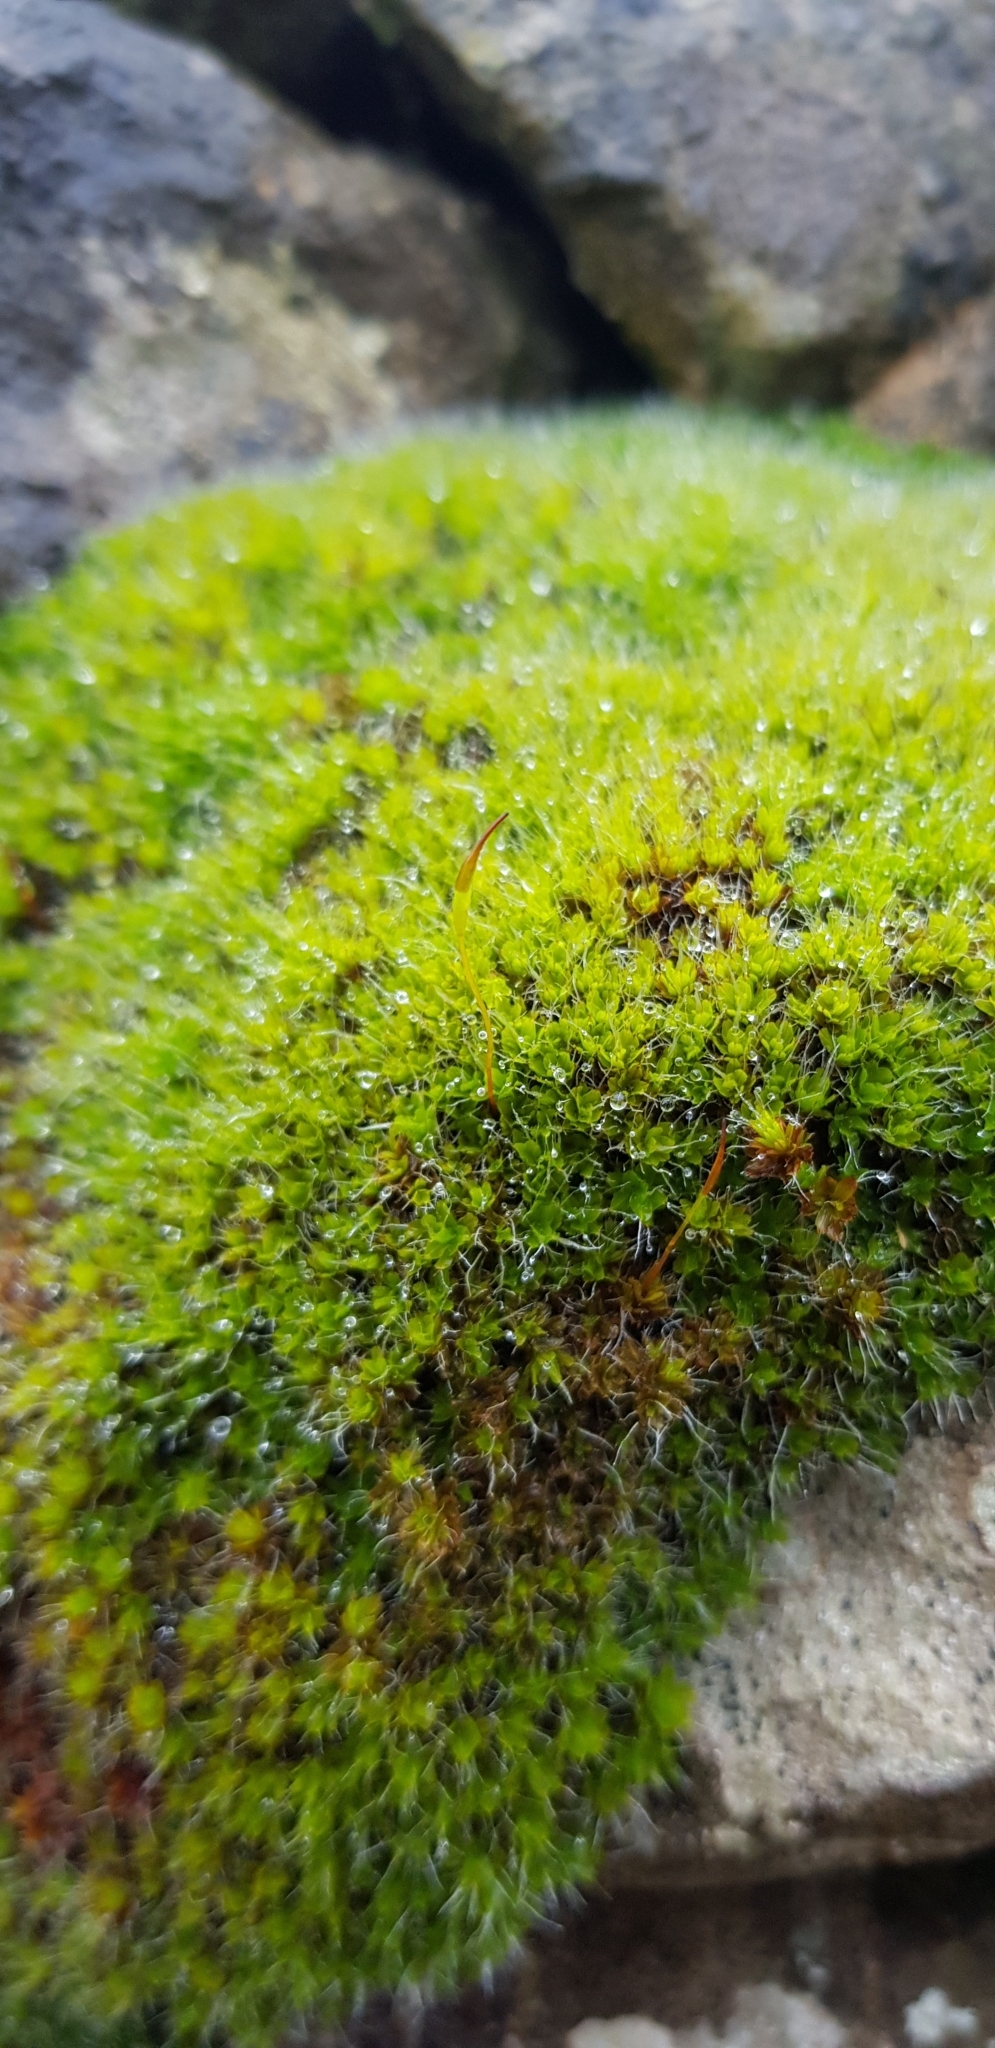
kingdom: Plantae
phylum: Bryophyta
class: Bryopsida
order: Pottiales
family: Pottiaceae
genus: Syntrichia
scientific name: Syntrichia montana
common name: Intermediate screw-moss
